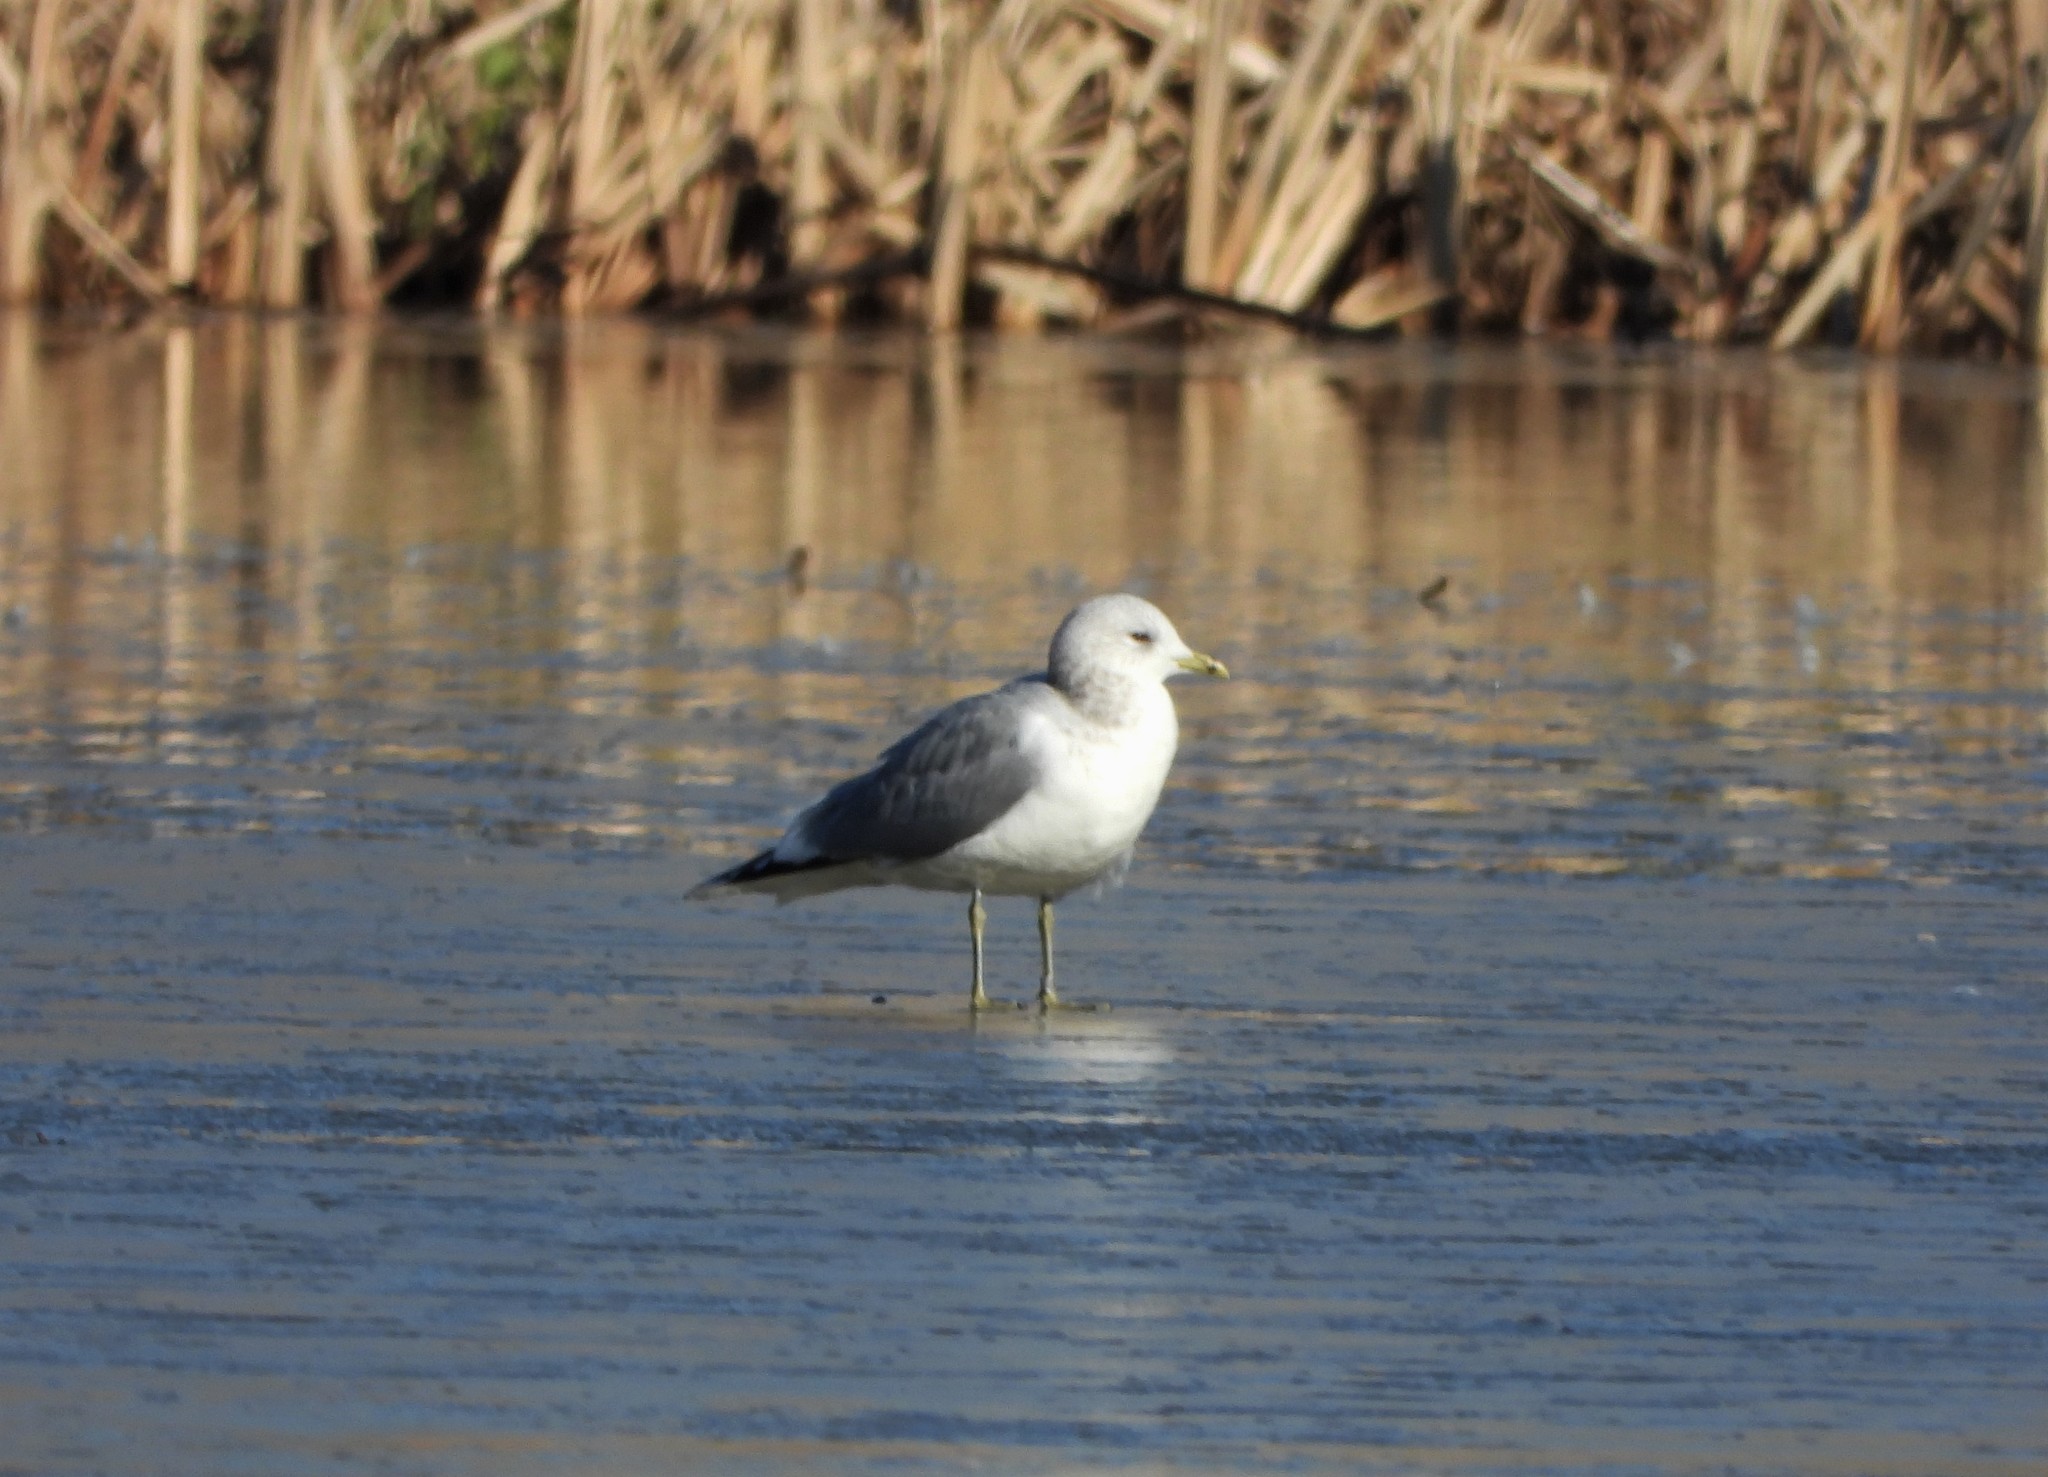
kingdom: Animalia
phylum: Chordata
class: Aves
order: Charadriiformes
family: Laridae
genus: Larus
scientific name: Larus canus
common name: Mew gull
